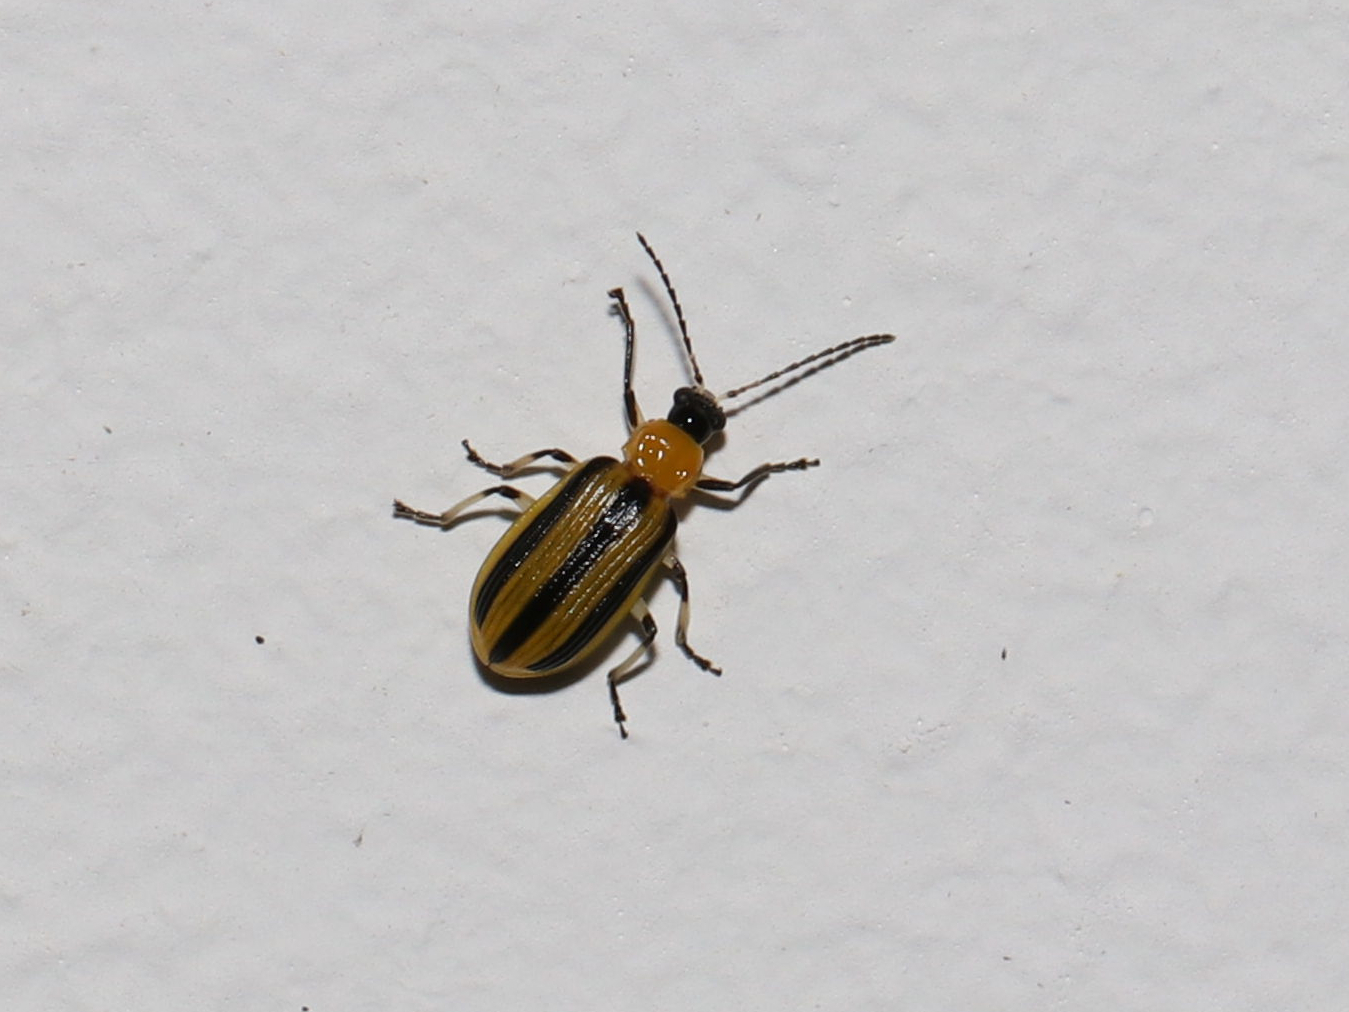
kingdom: Animalia
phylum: Arthropoda
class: Insecta
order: Coleoptera
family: Chrysomelidae
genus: Acalymma
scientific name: Acalymma vittatum
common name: Striped cucumber beetle
